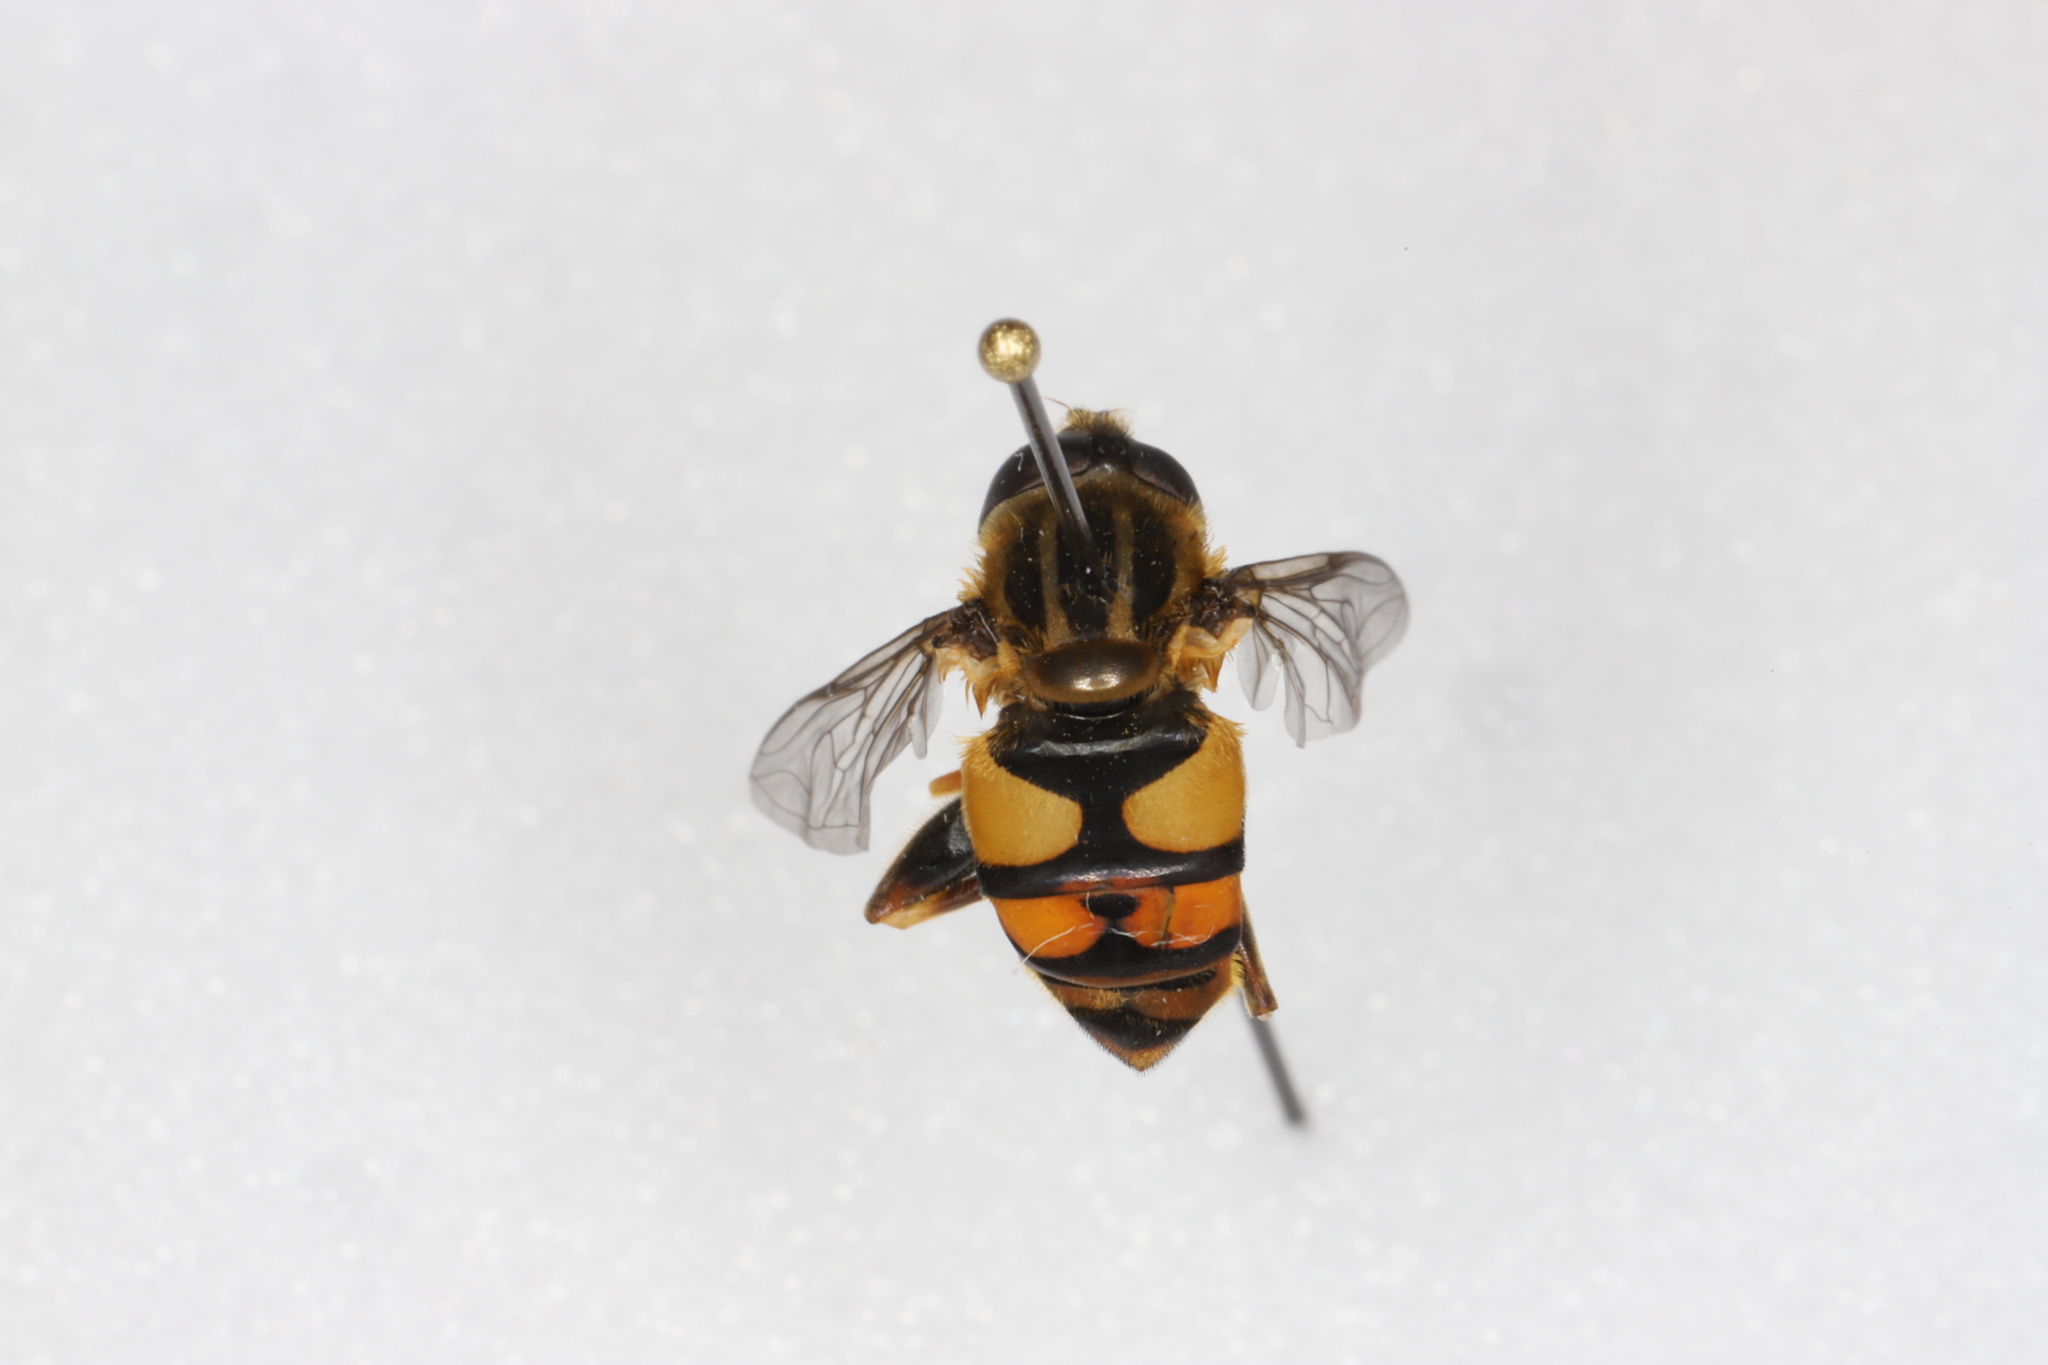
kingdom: Animalia
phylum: Arthropoda
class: Insecta
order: Diptera
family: Syrphidae
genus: Helophilus
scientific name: Helophilus fasciatus
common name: Narrow-headed marsh fly
